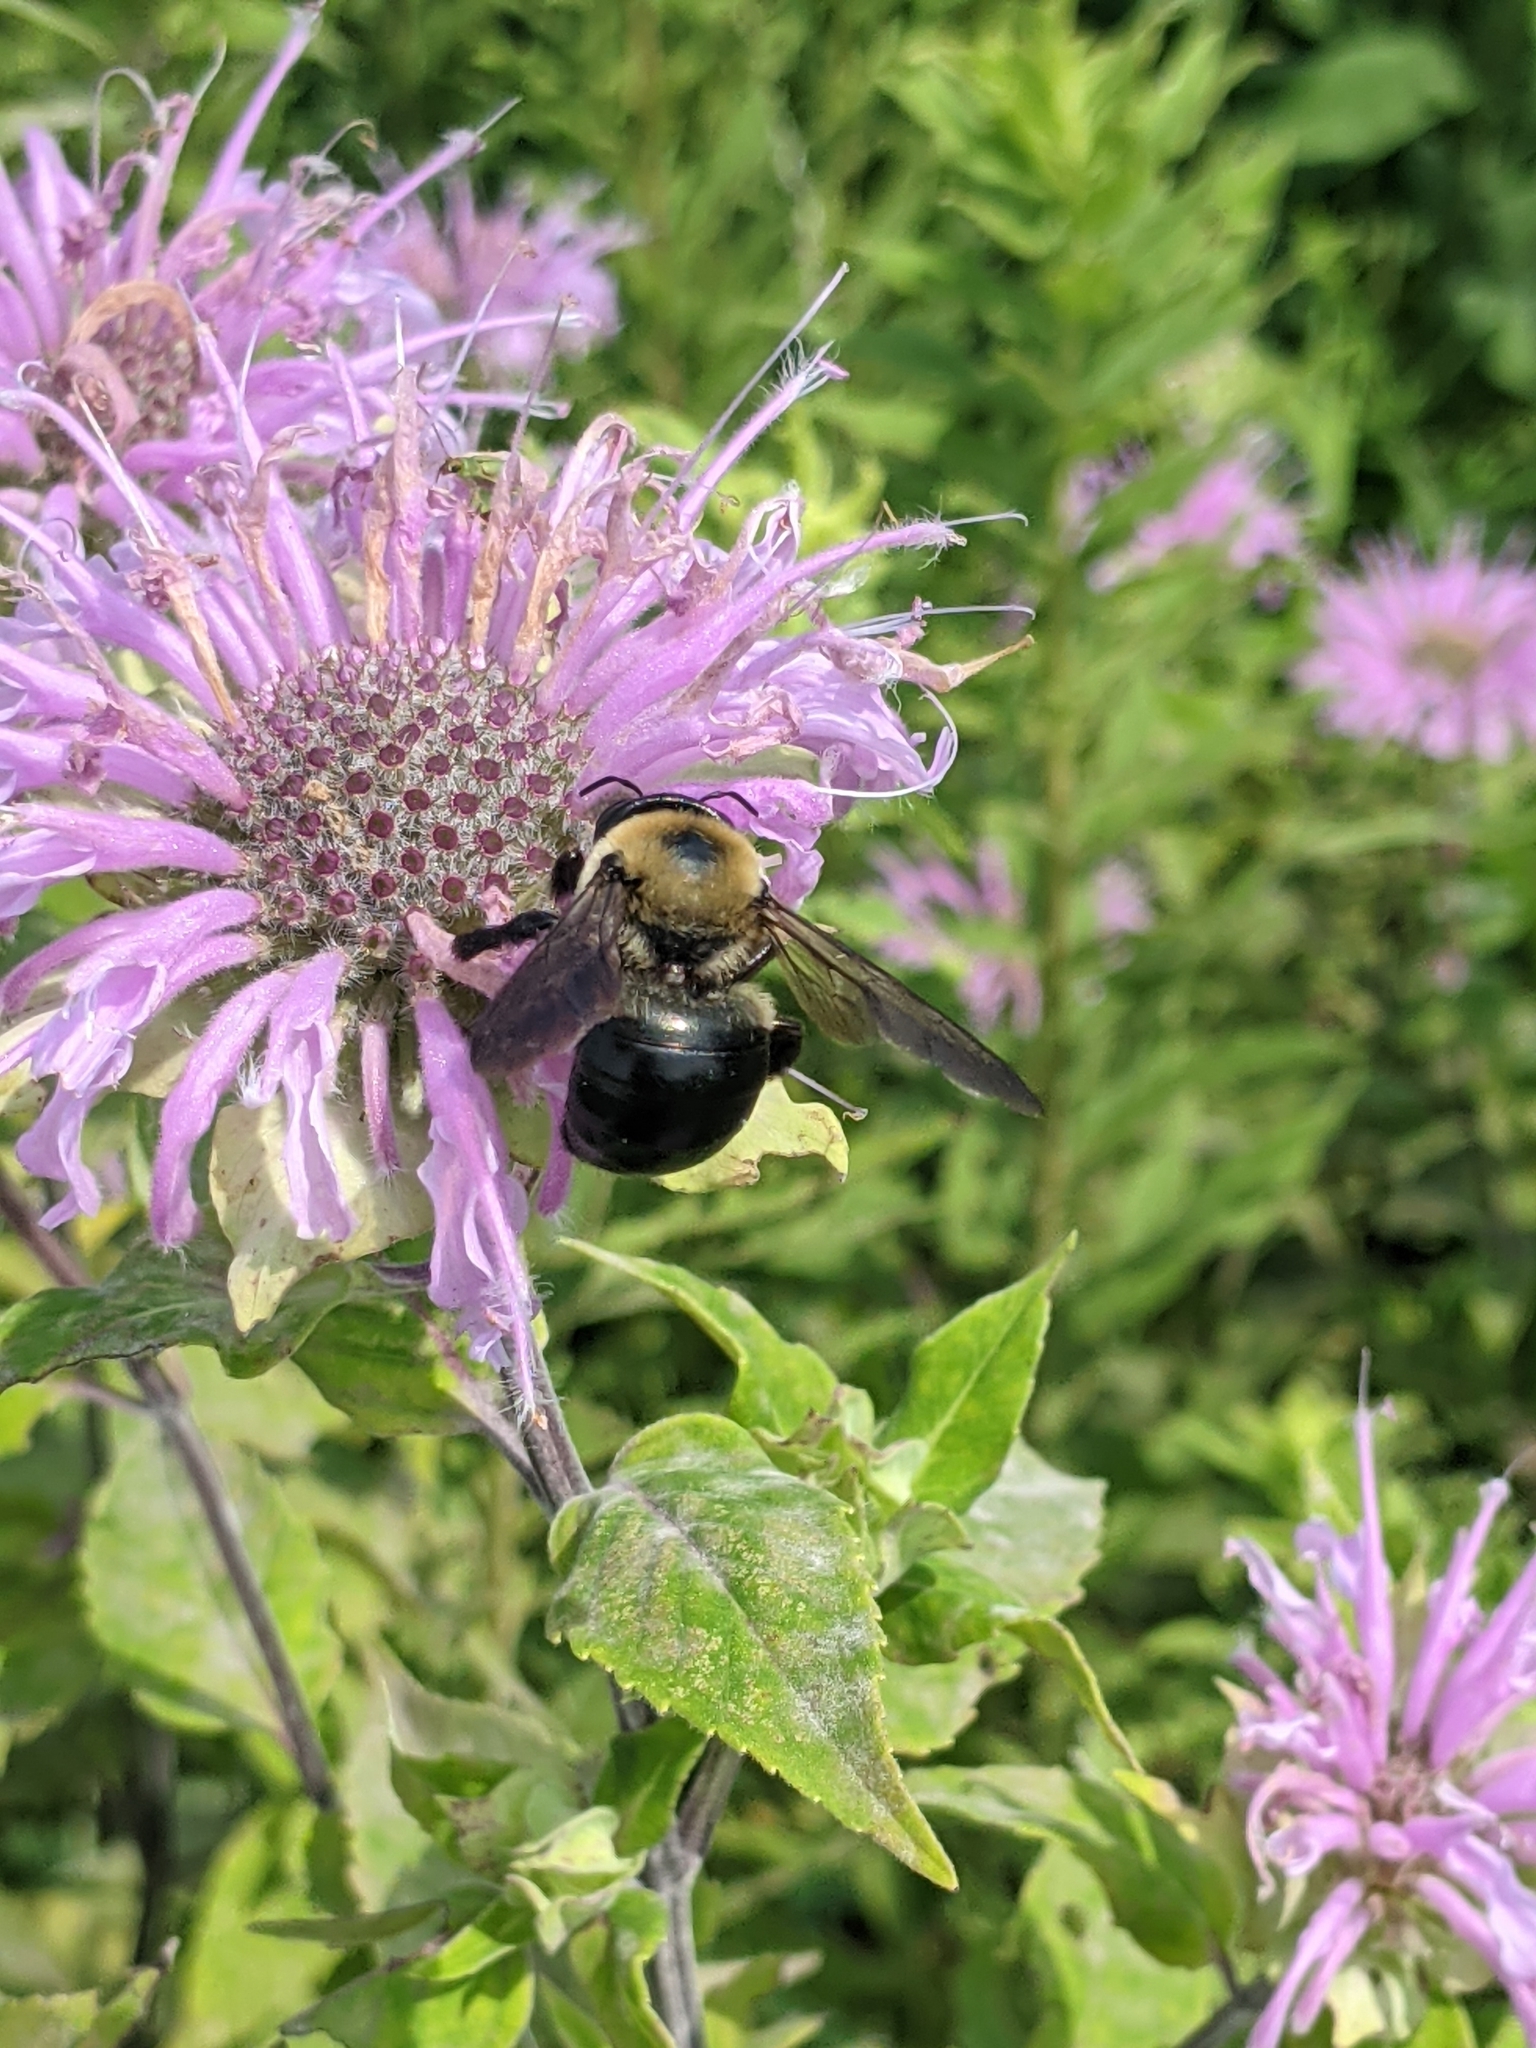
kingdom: Animalia
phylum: Arthropoda
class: Insecta
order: Hymenoptera
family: Apidae
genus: Xylocopa
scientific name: Xylocopa virginica
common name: Carpenter bee
